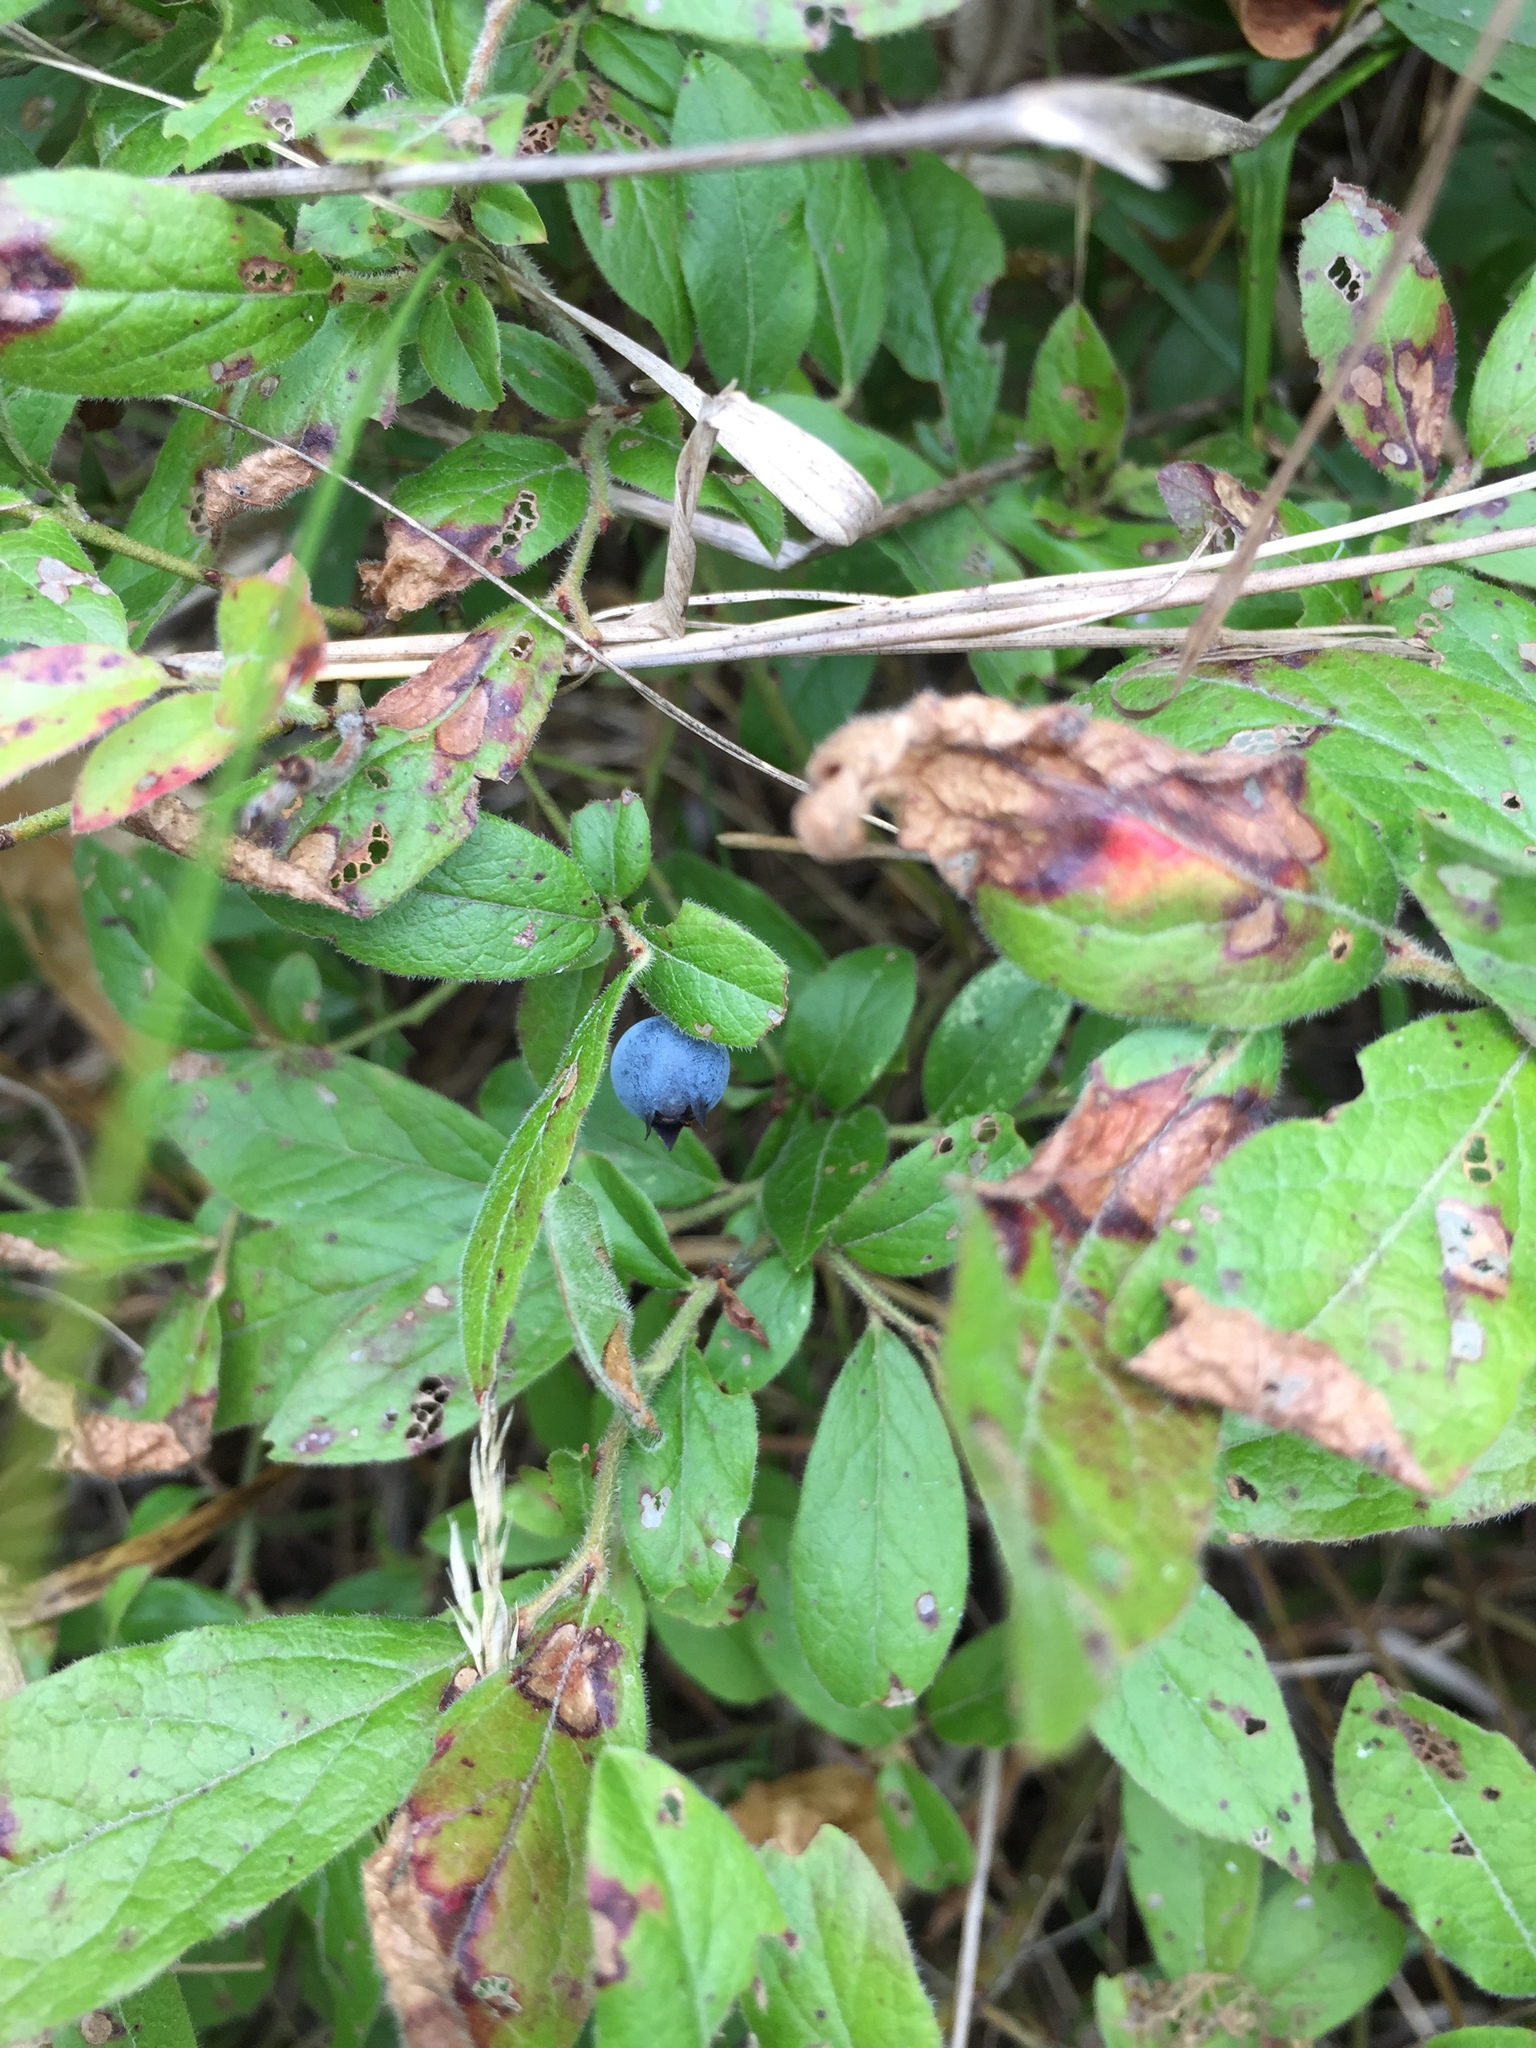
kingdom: Plantae
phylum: Tracheophyta
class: Magnoliopsida
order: Ericales
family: Ericaceae
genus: Vaccinium
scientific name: Vaccinium myrtilloides
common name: Canada blueberry
